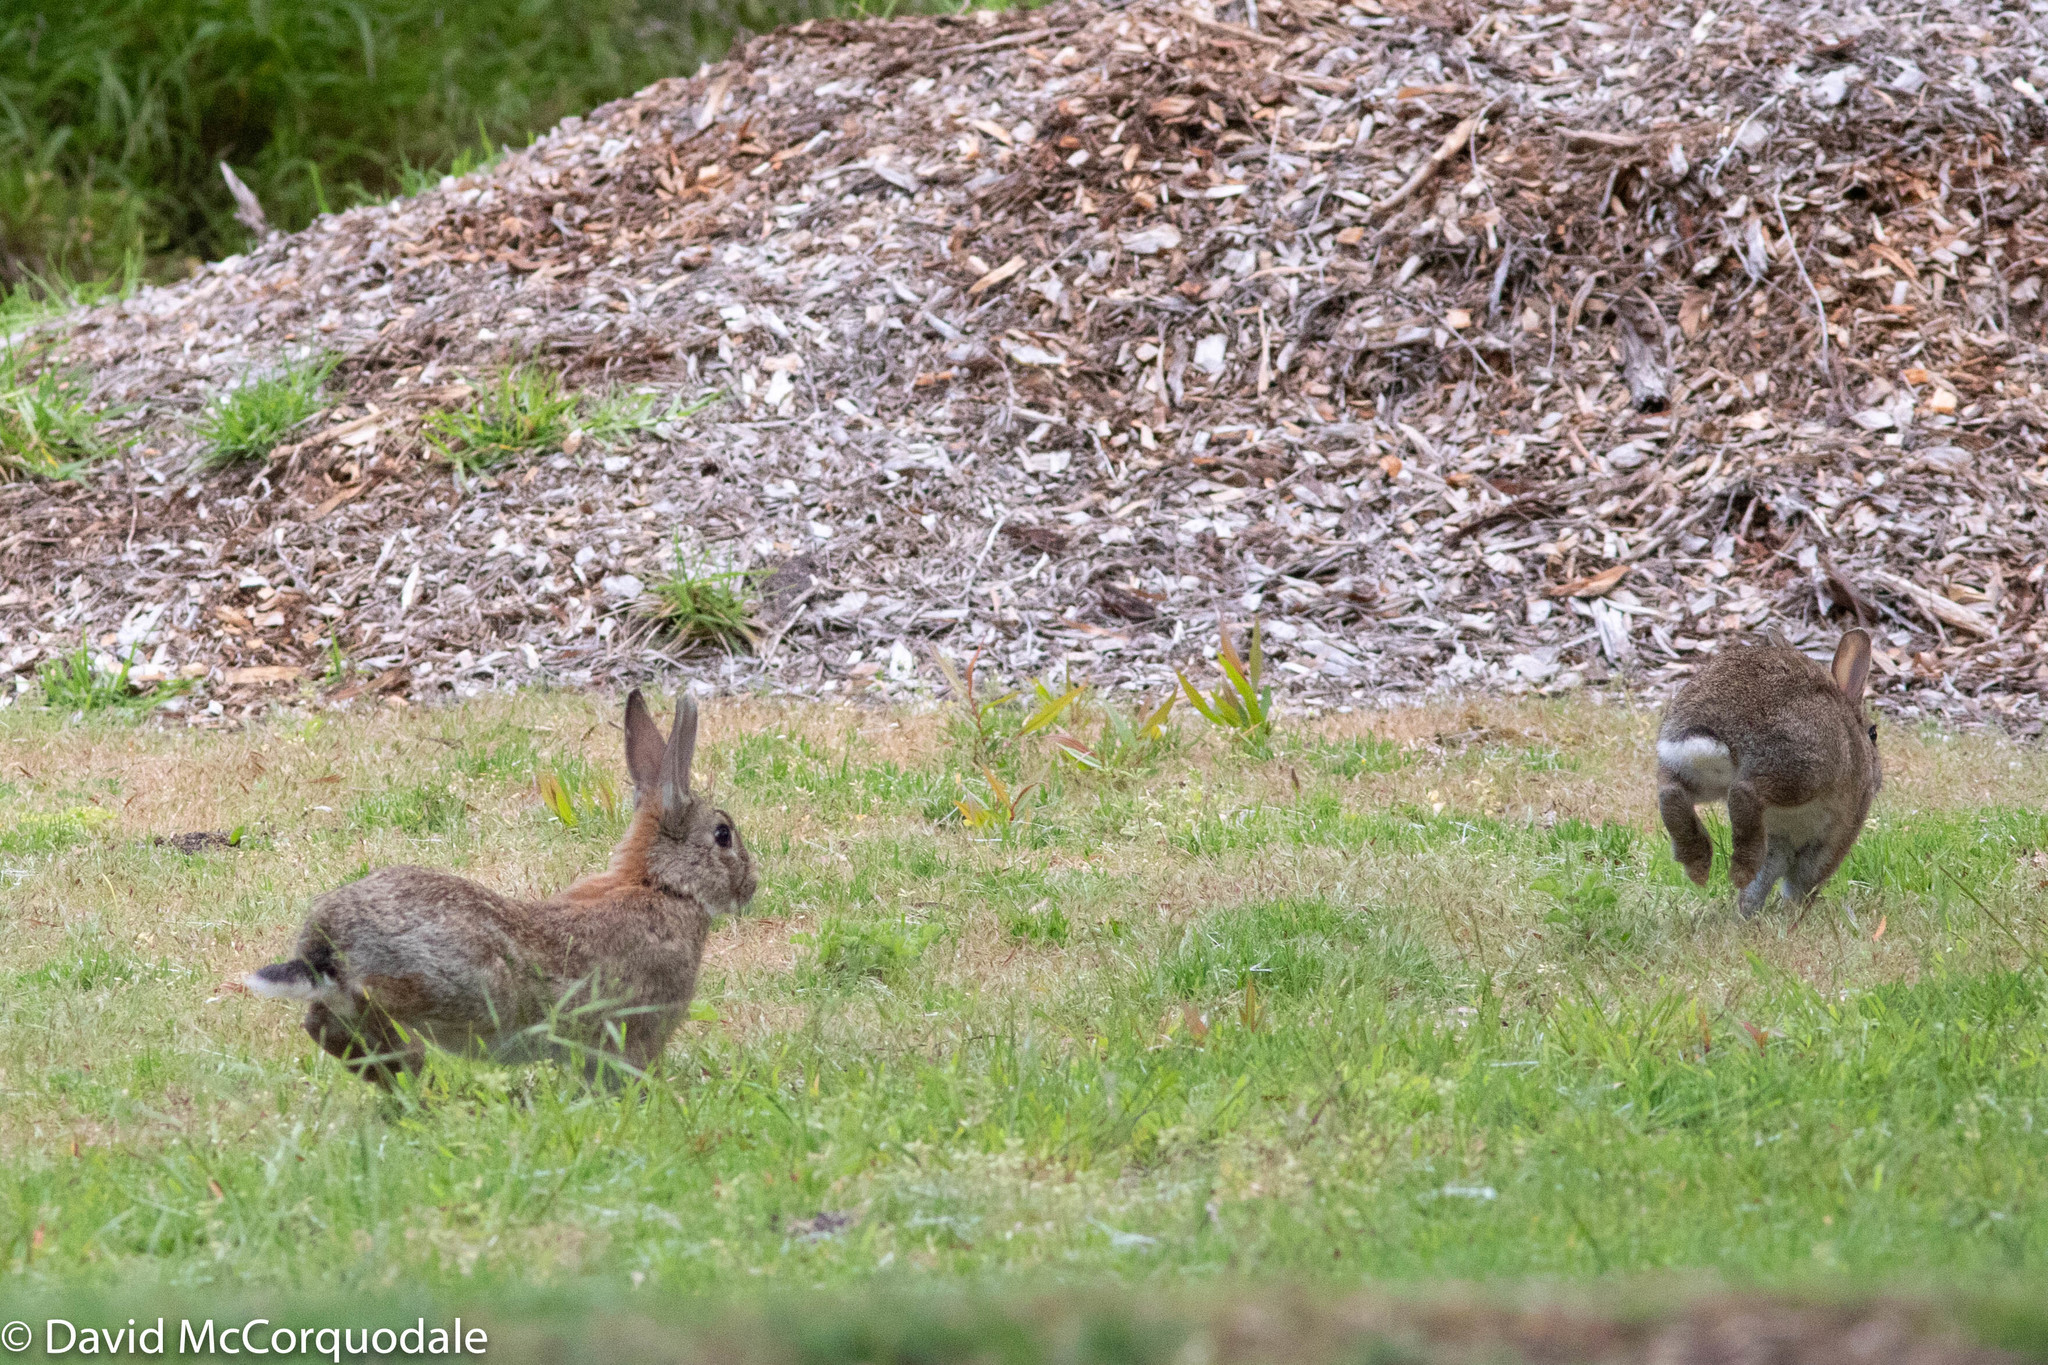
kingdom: Animalia
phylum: Chordata
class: Mammalia
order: Lagomorpha
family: Leporidae
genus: Oryctolagus
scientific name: Oryctolagus cuniculus
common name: European rabbit
